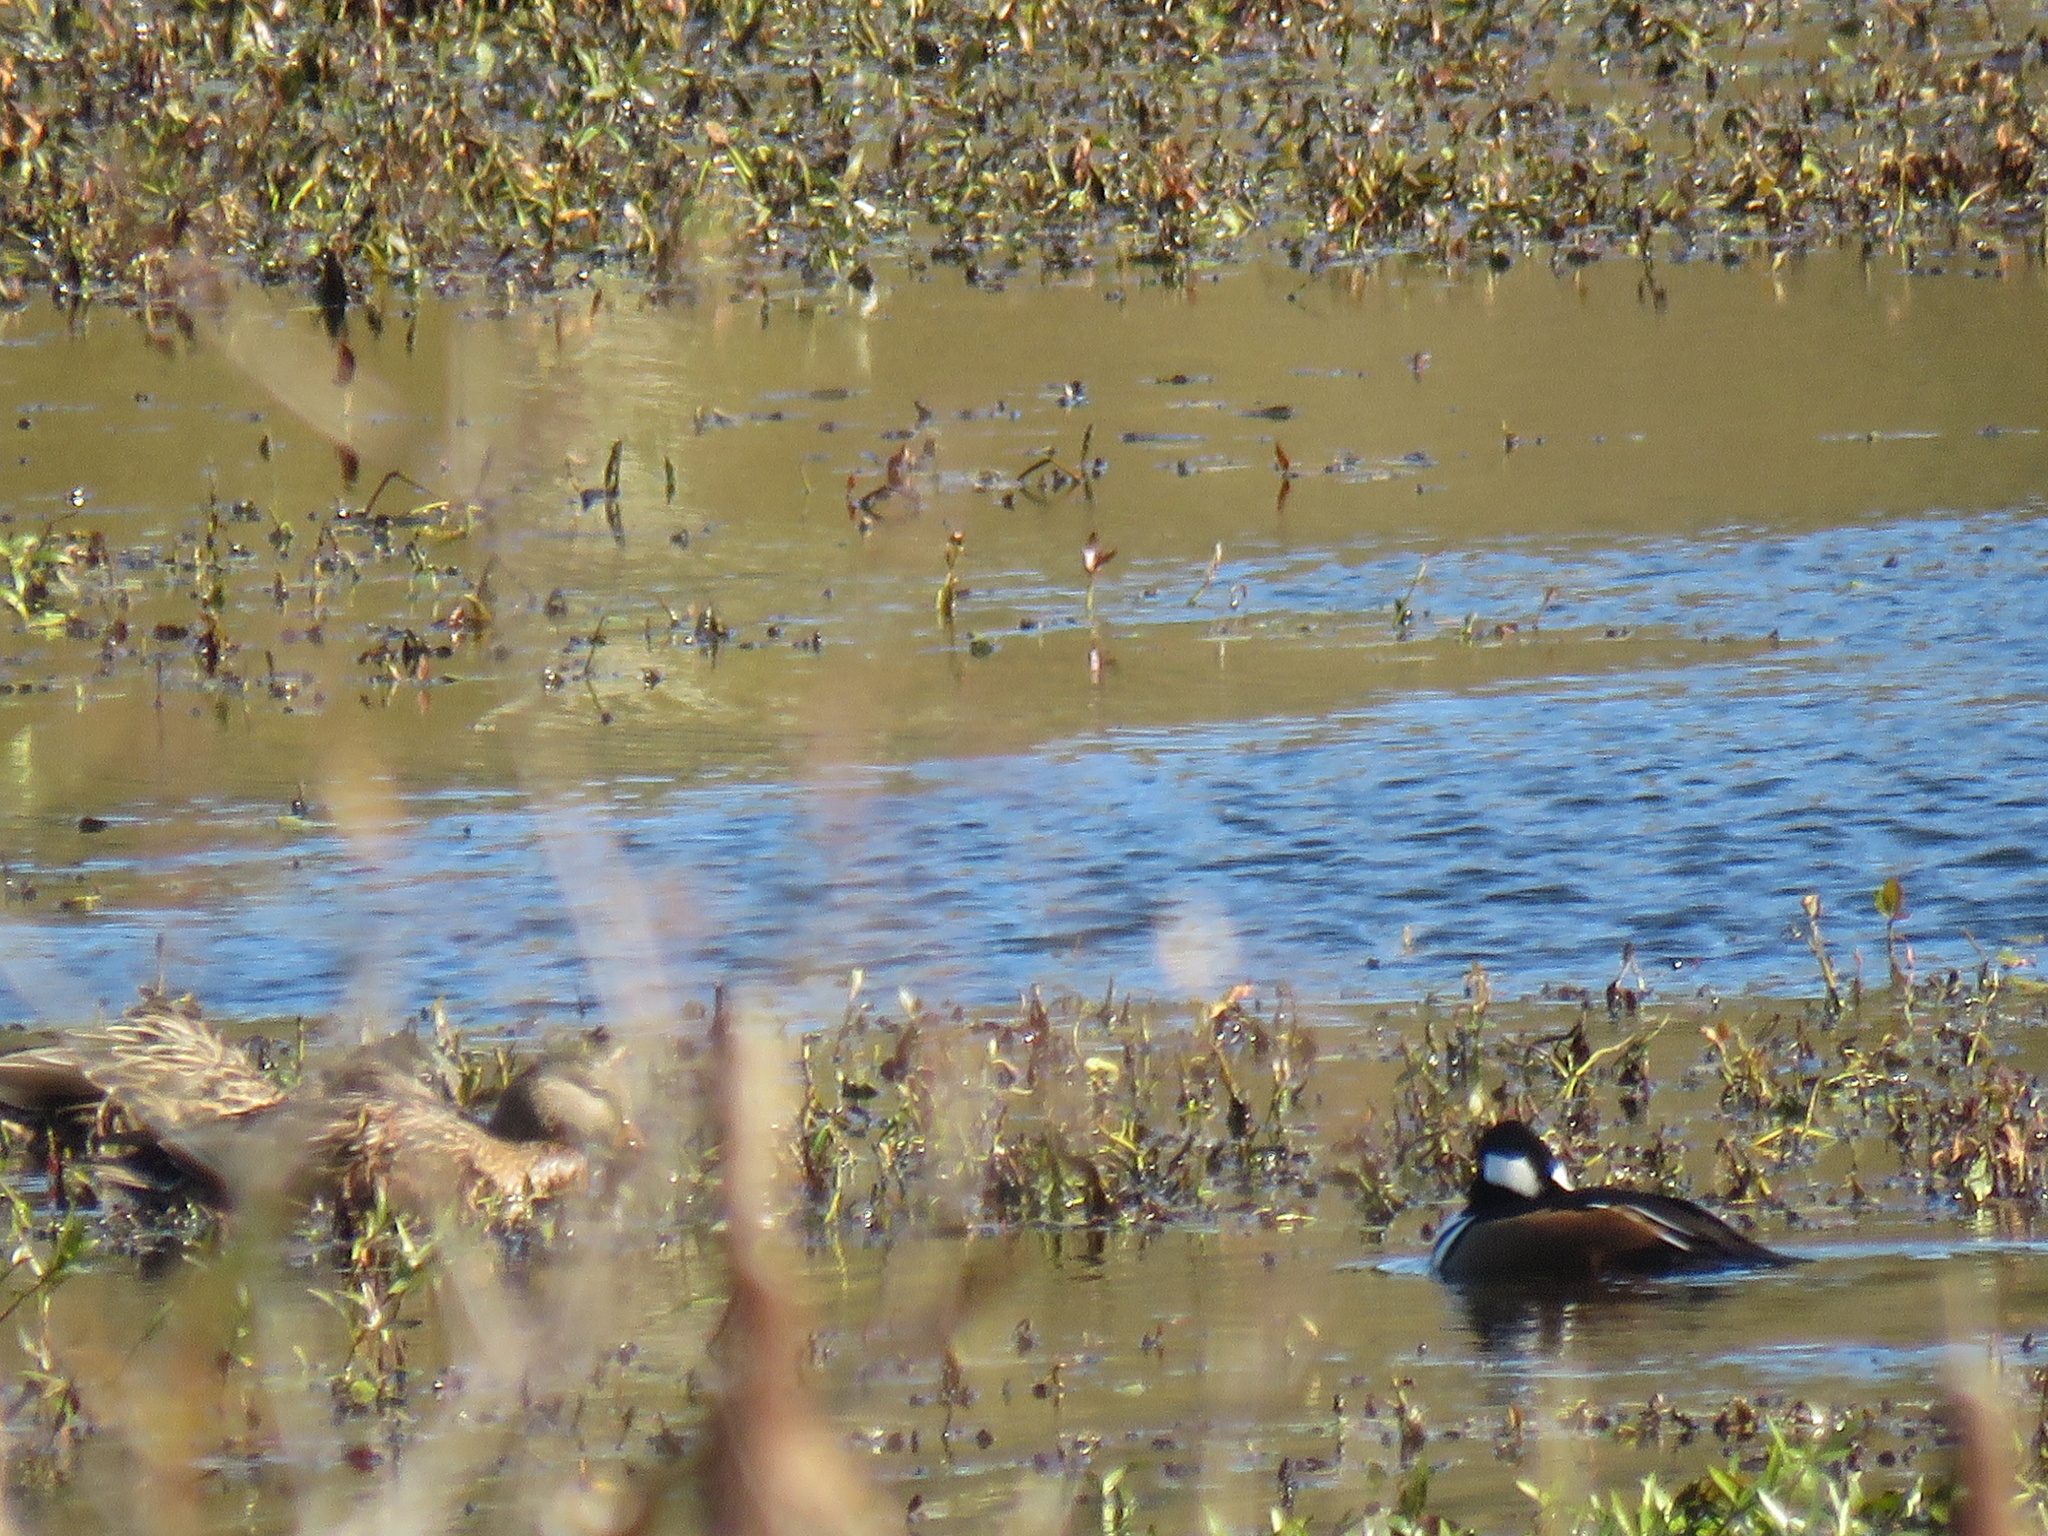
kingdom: Animalia
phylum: Chordata
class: Aves
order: Anseriformes
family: Anatidae
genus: Lophodytes
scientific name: Lophodytes cucullatus
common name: Hooded merganser
